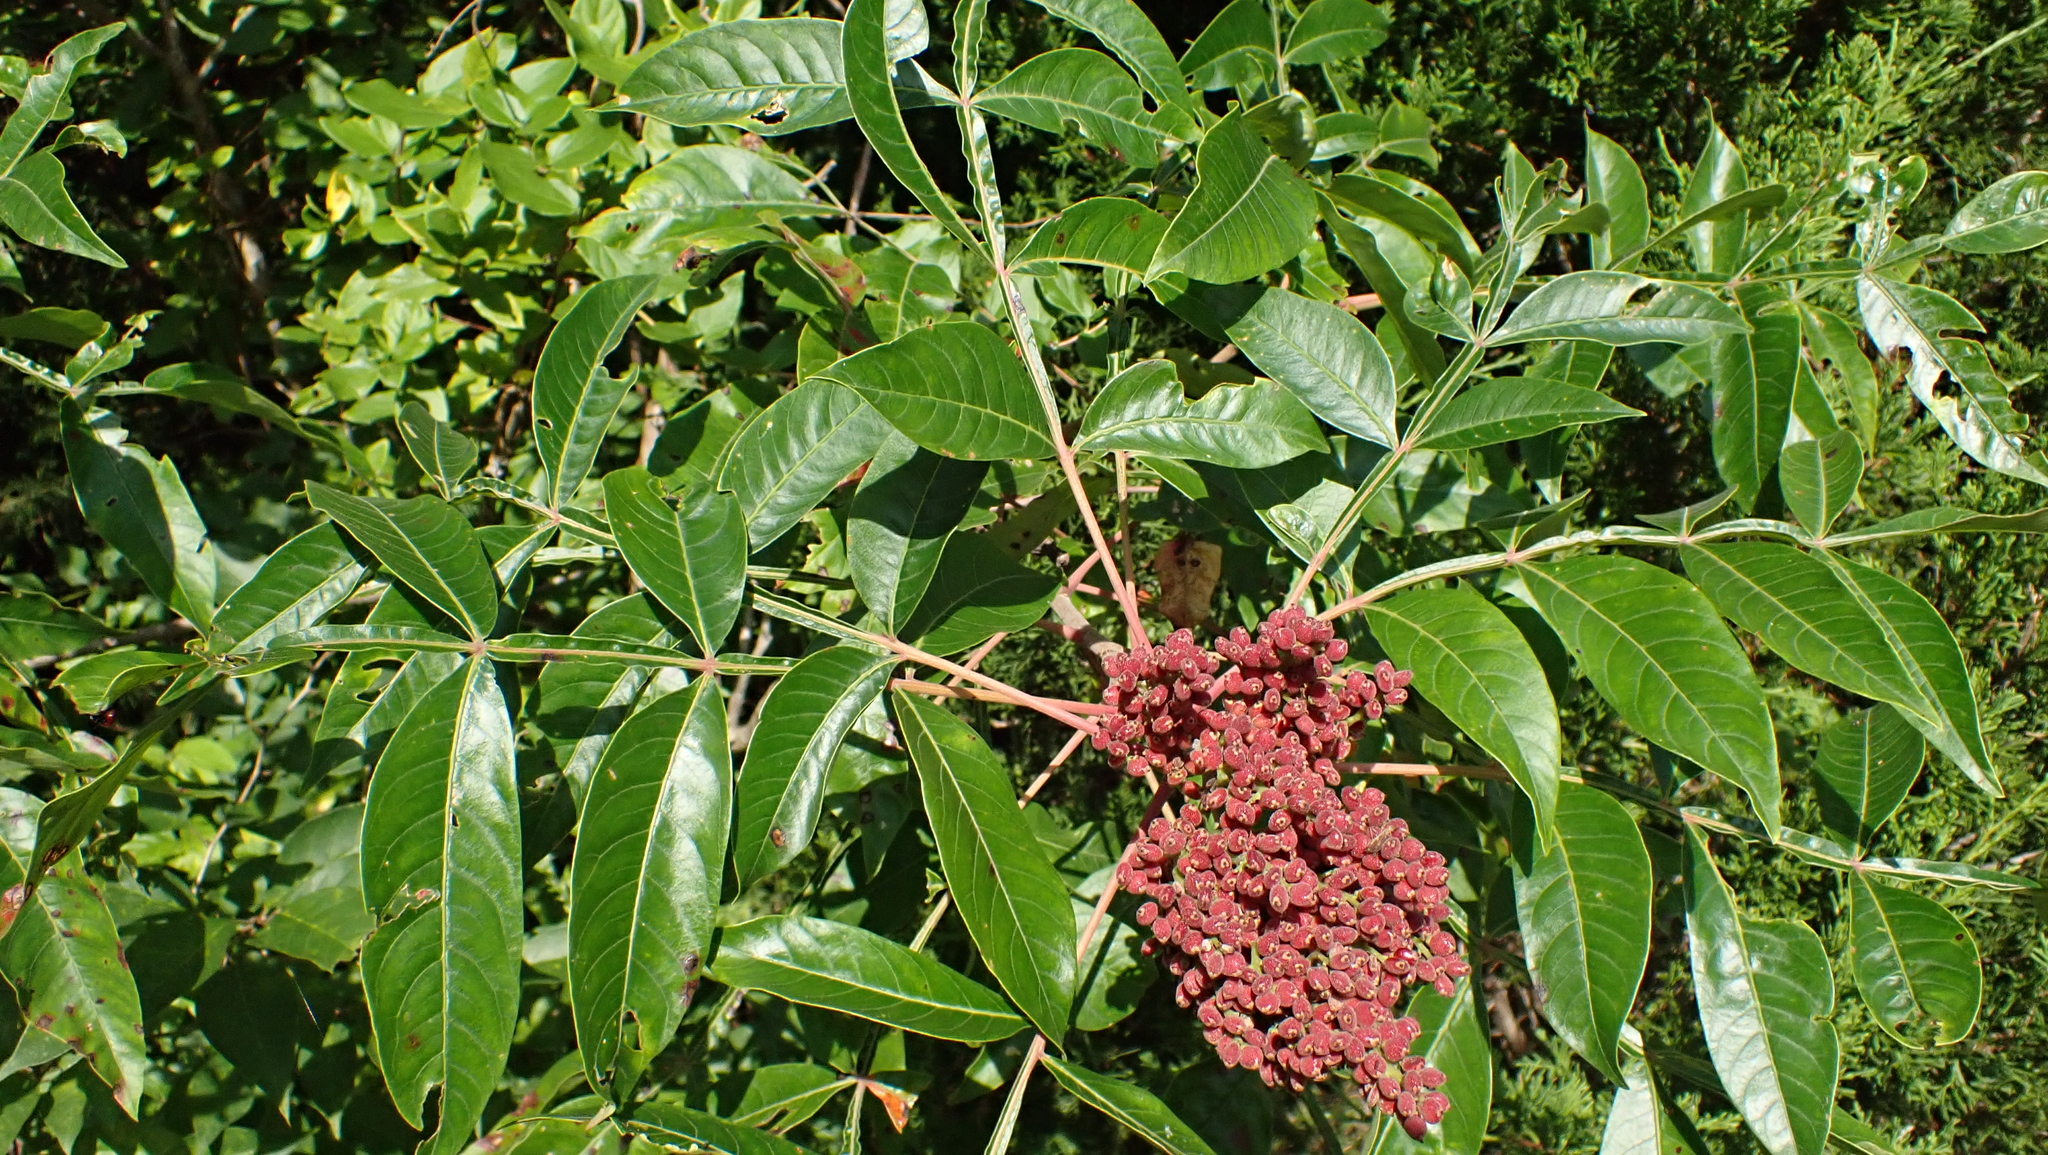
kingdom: Plantae
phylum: Tracheophyta
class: Magnoliopsida
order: Sapindales
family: Anacardiaceae
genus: Rhus
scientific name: Rhus copallina
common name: Shining sumac
